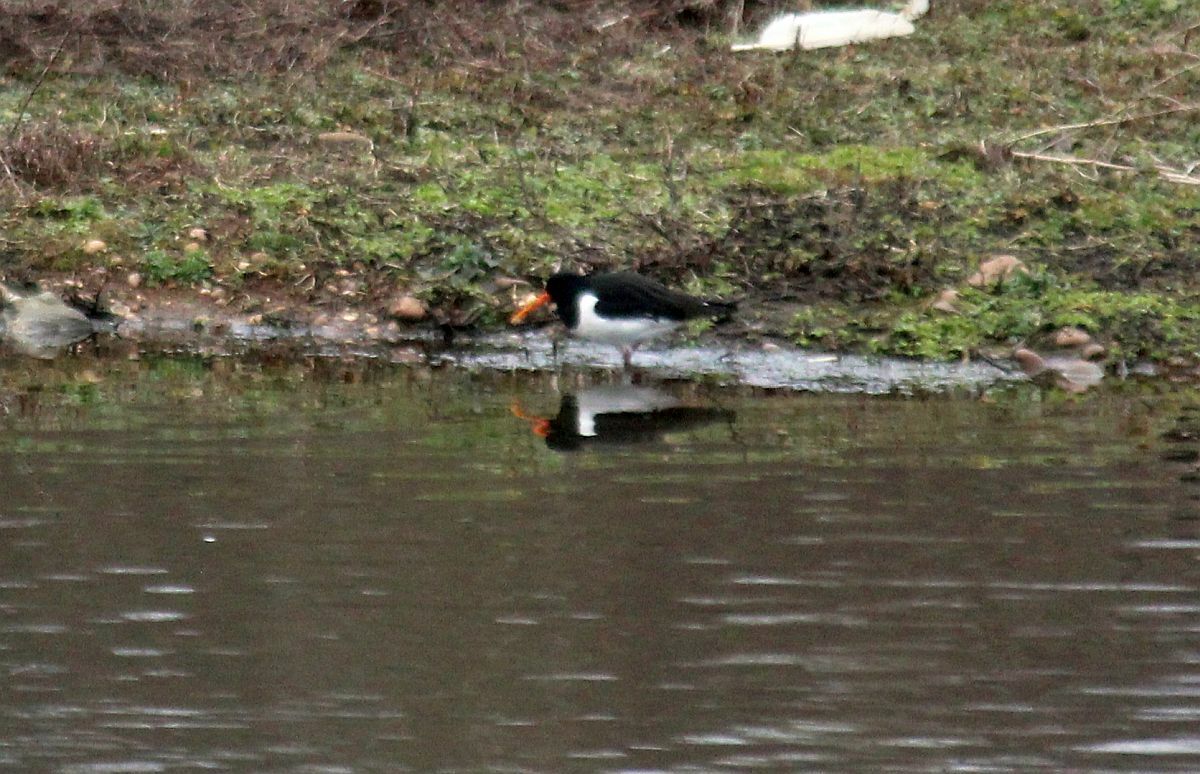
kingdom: Animalia
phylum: Chordata
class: Aves
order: Charadriiformes
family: Haematopodidae
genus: Haematopus
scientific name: Haematopus ostralegus
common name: Eurasian oystercatcher
